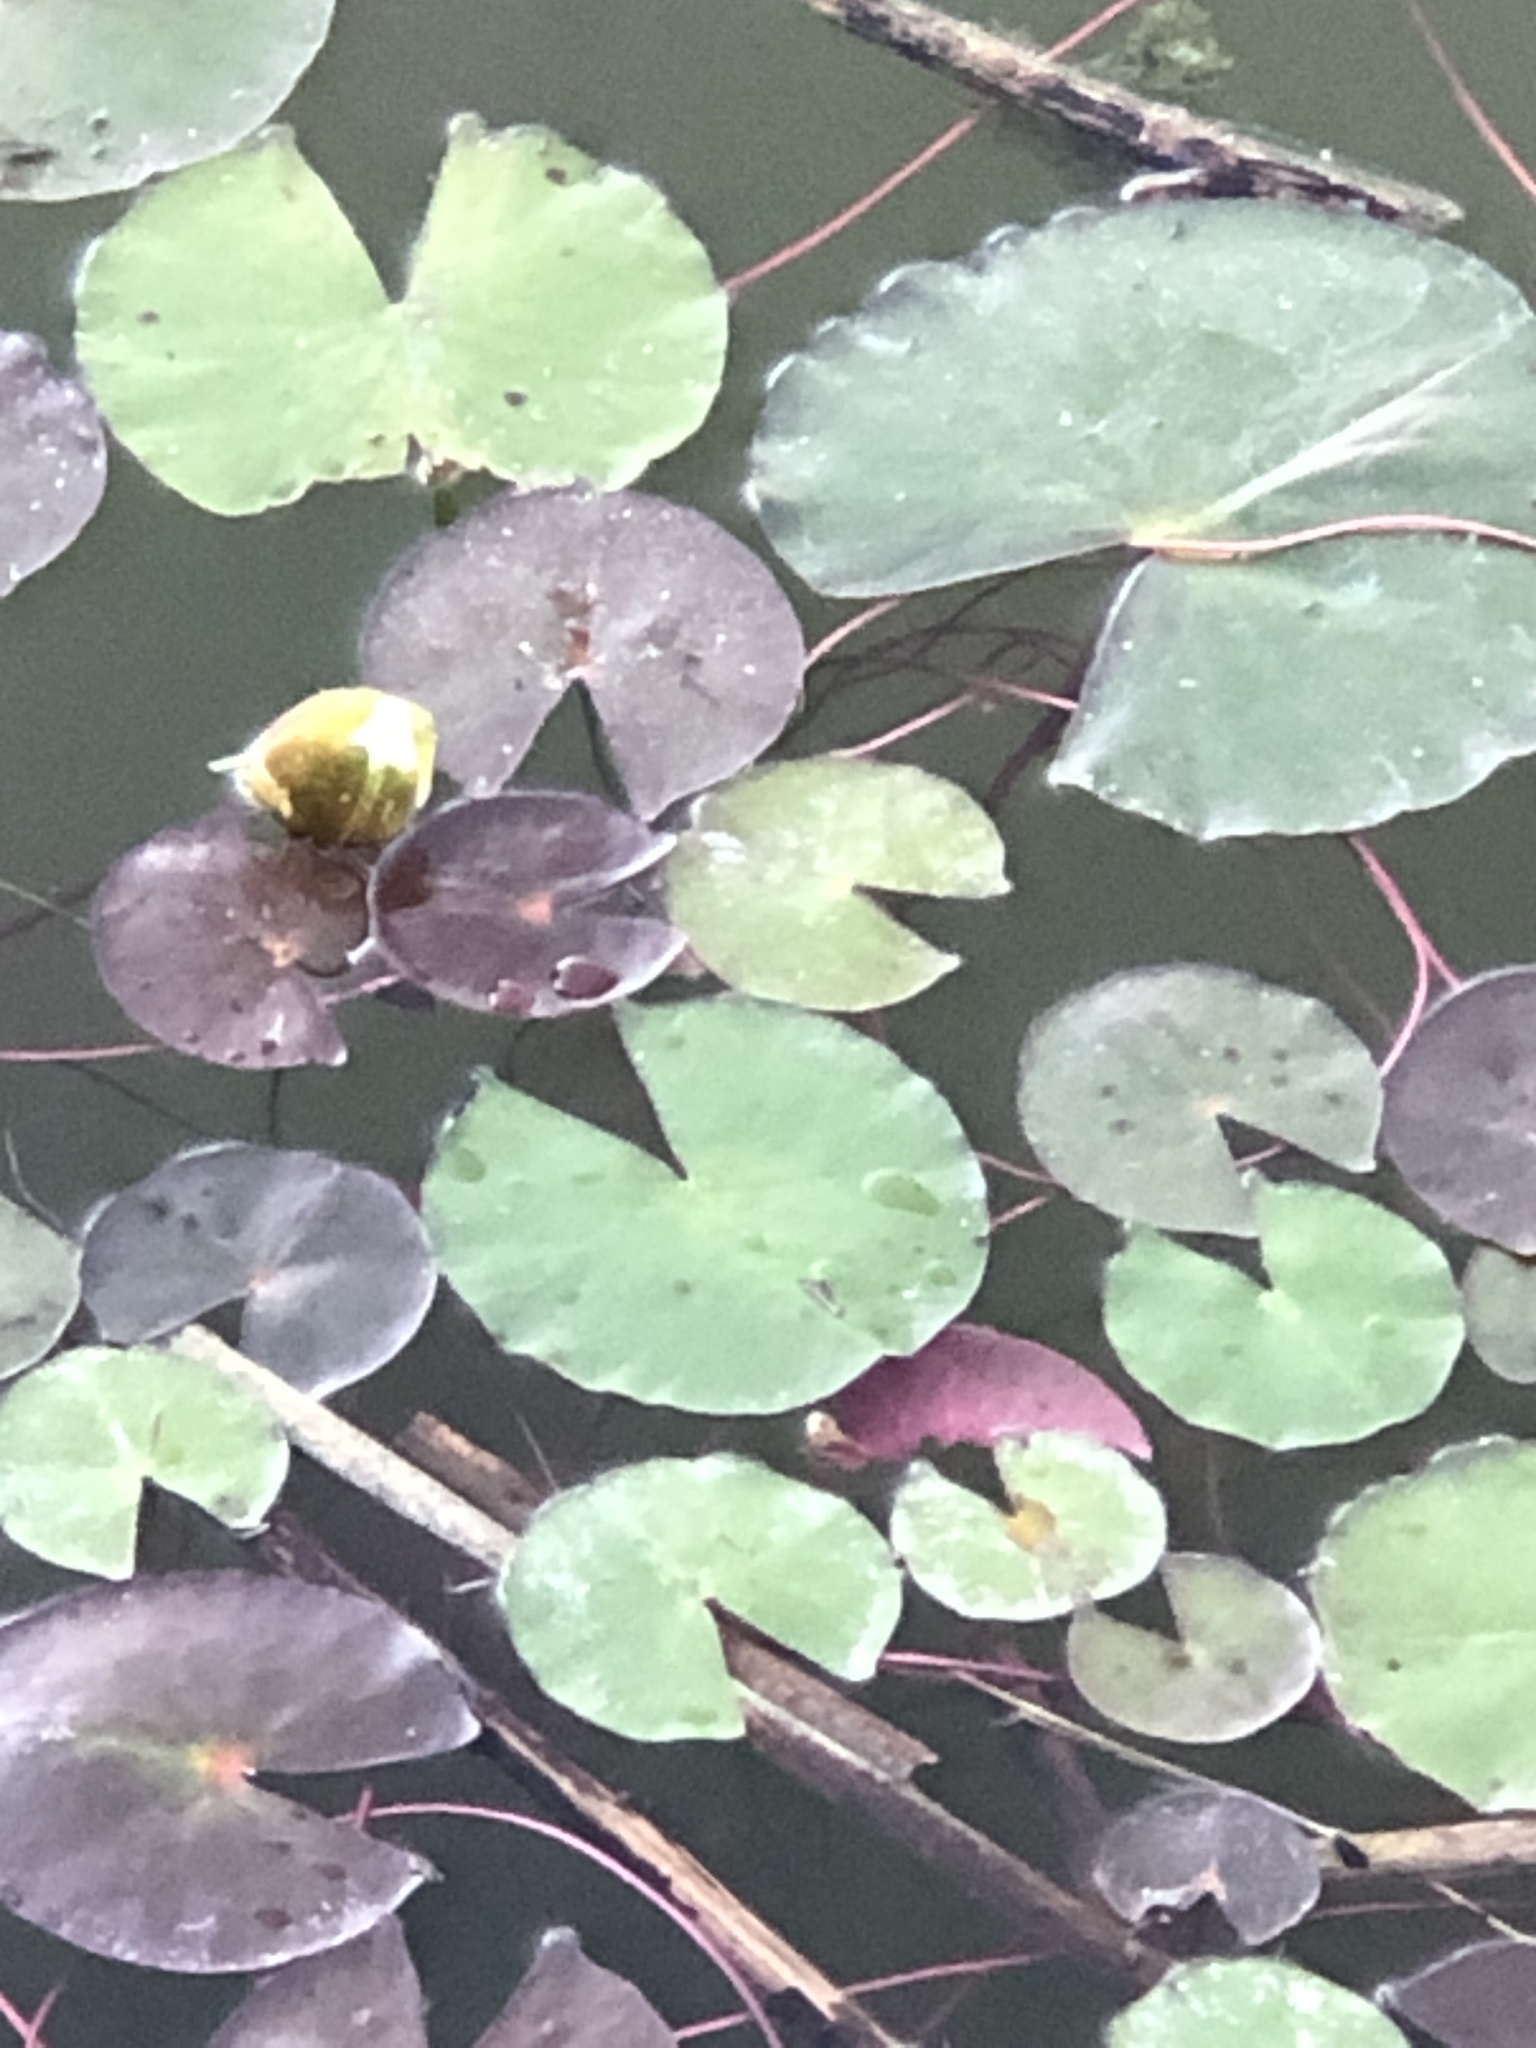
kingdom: Plantae
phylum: Tracheophyta
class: Magnoliopsida
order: Nymphaeales
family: Nymphaeaceae
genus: Nymphaea
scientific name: Nymphaea odorata
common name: Fragrant water-lily
